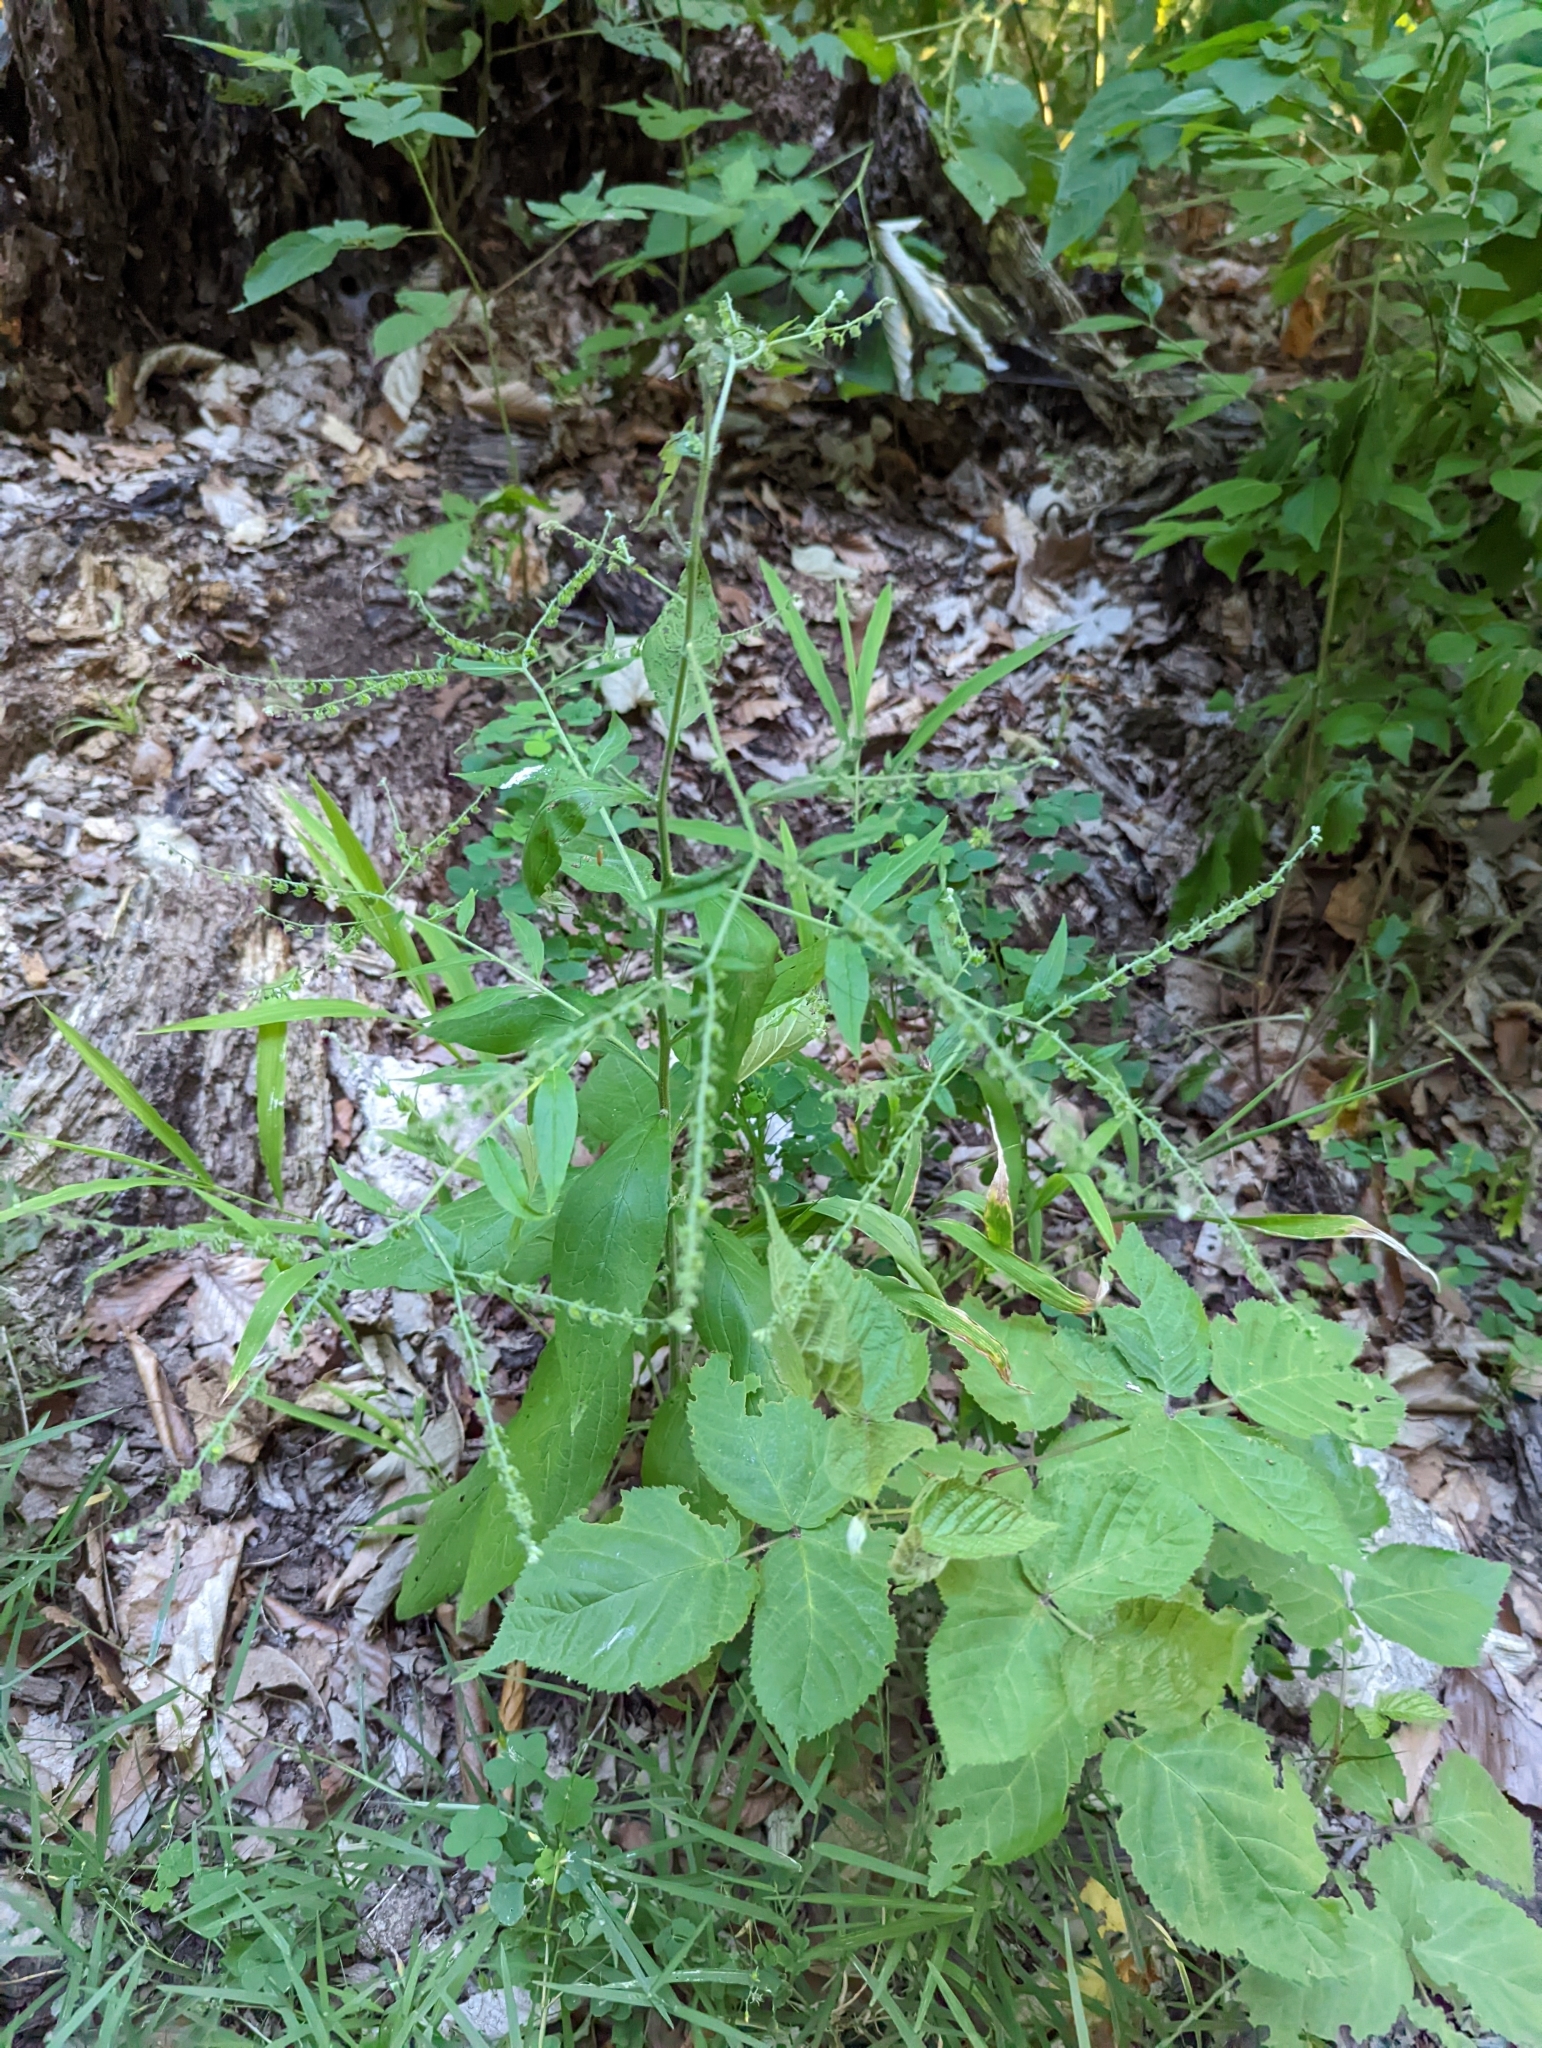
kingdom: Plantae
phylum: Tracheophyta
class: Magnoliopsida
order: Boraginales
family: Boraginaceae
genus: Hackelia
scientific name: Hackelia virginiana
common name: Beggar's-lice
